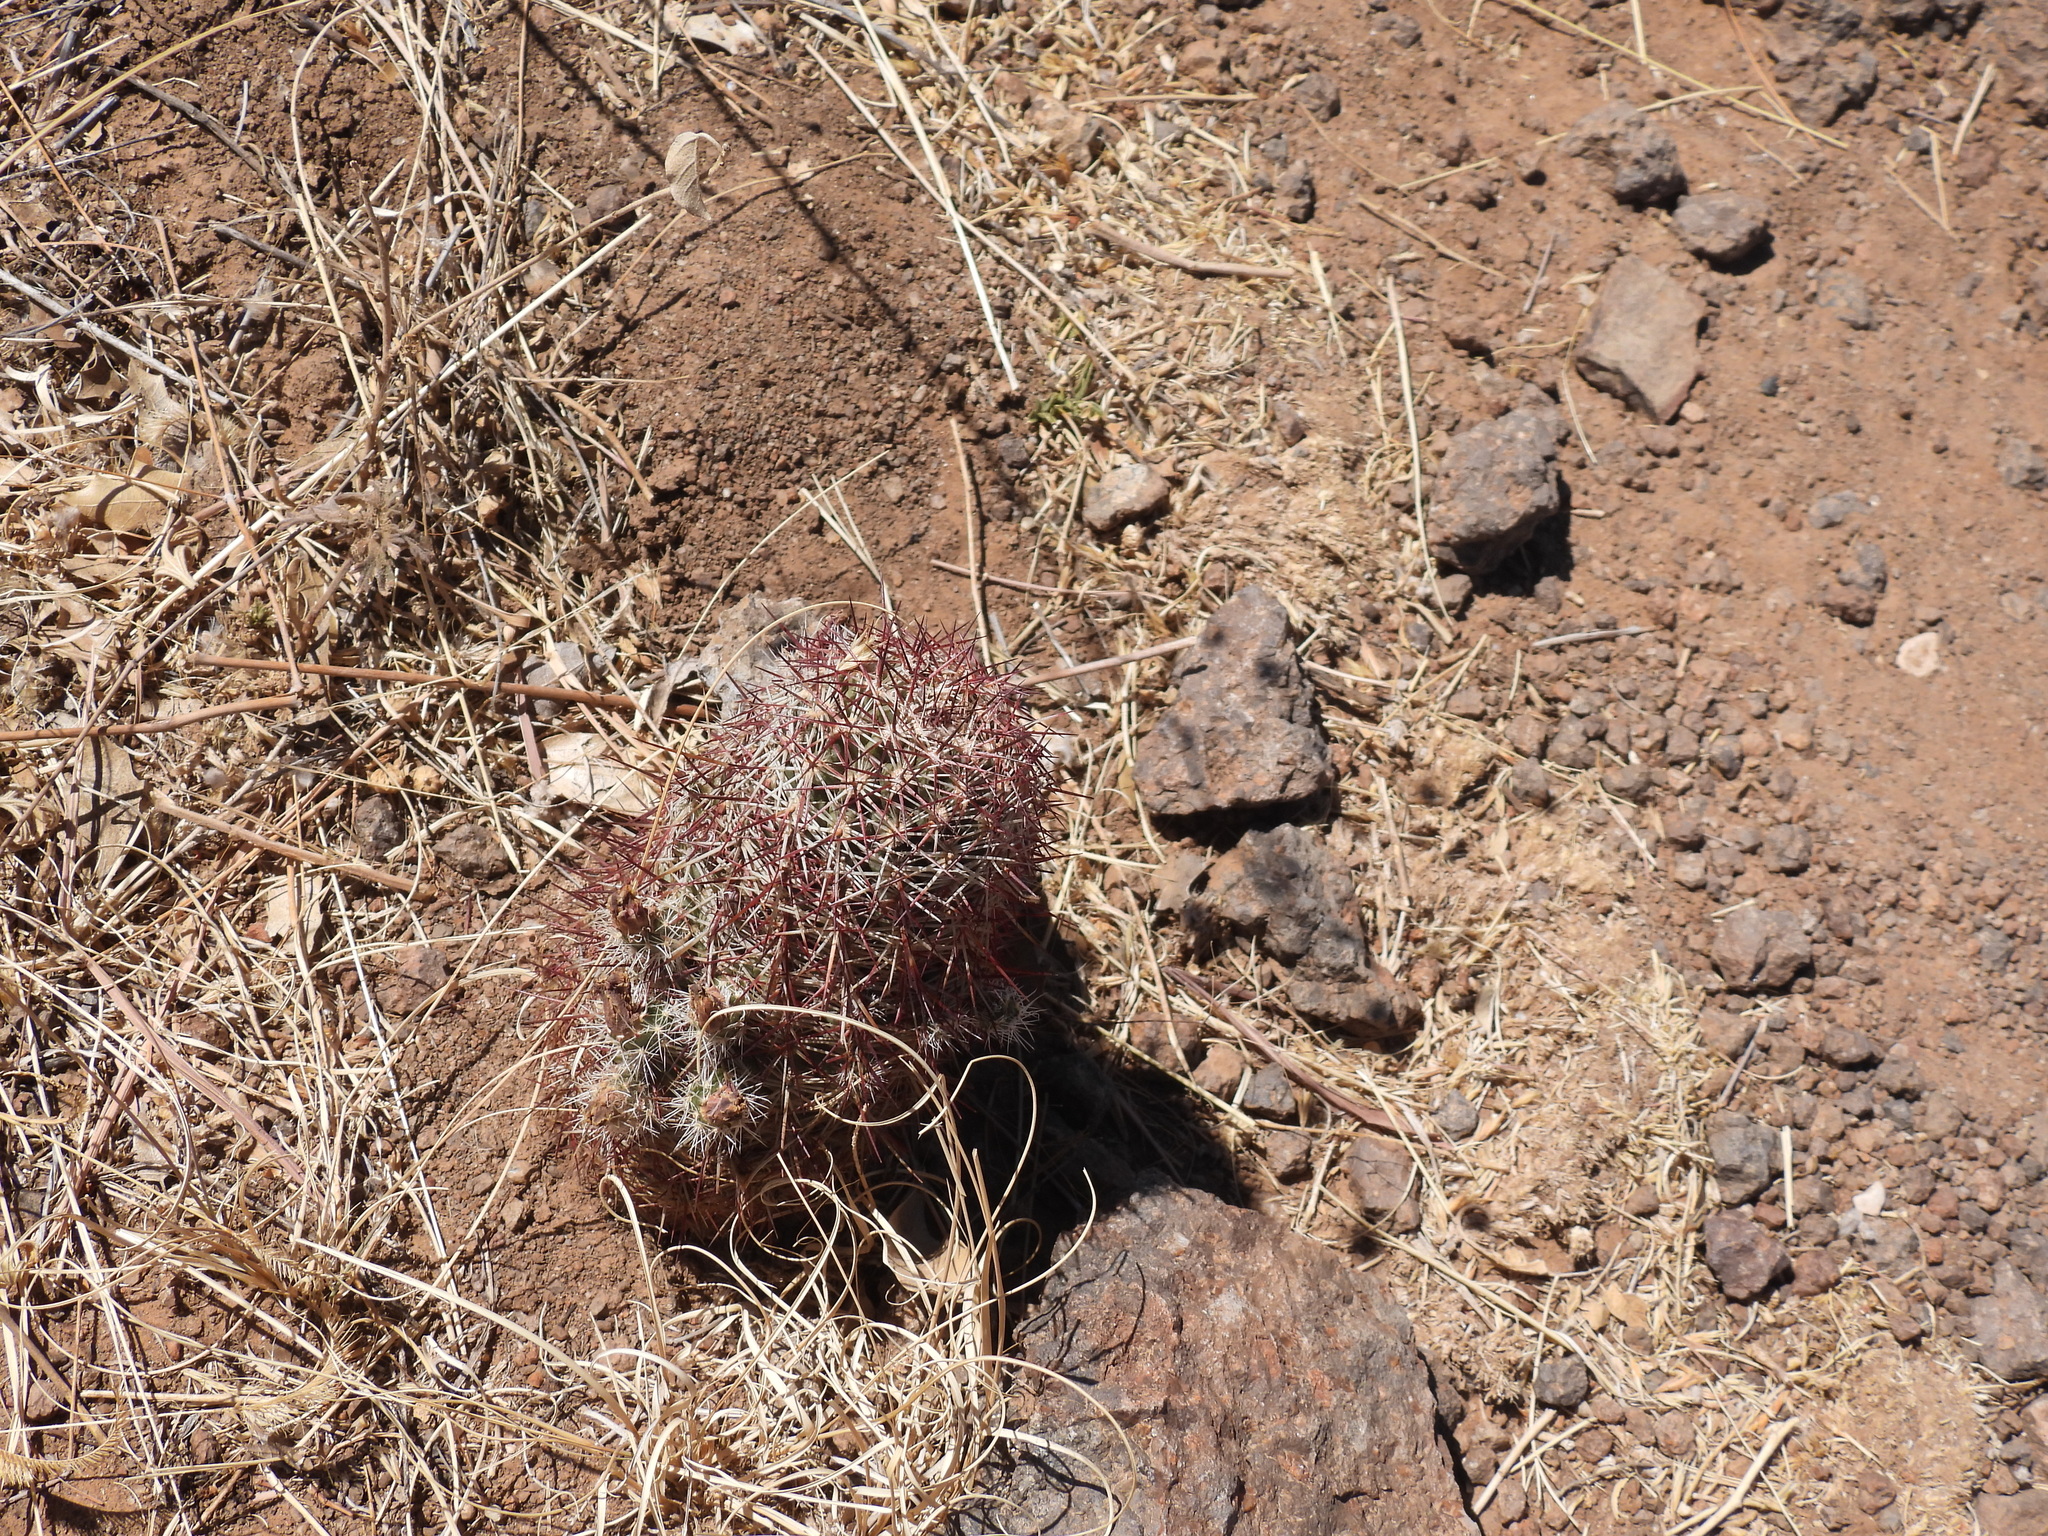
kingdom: Plantae
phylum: Tracheophyta
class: Magnoliopsida
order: Caryophyllales
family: Cactaceae
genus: Echinocereus
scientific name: Echinocereus viridiflorus
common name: Nylon hedgehog cactus
